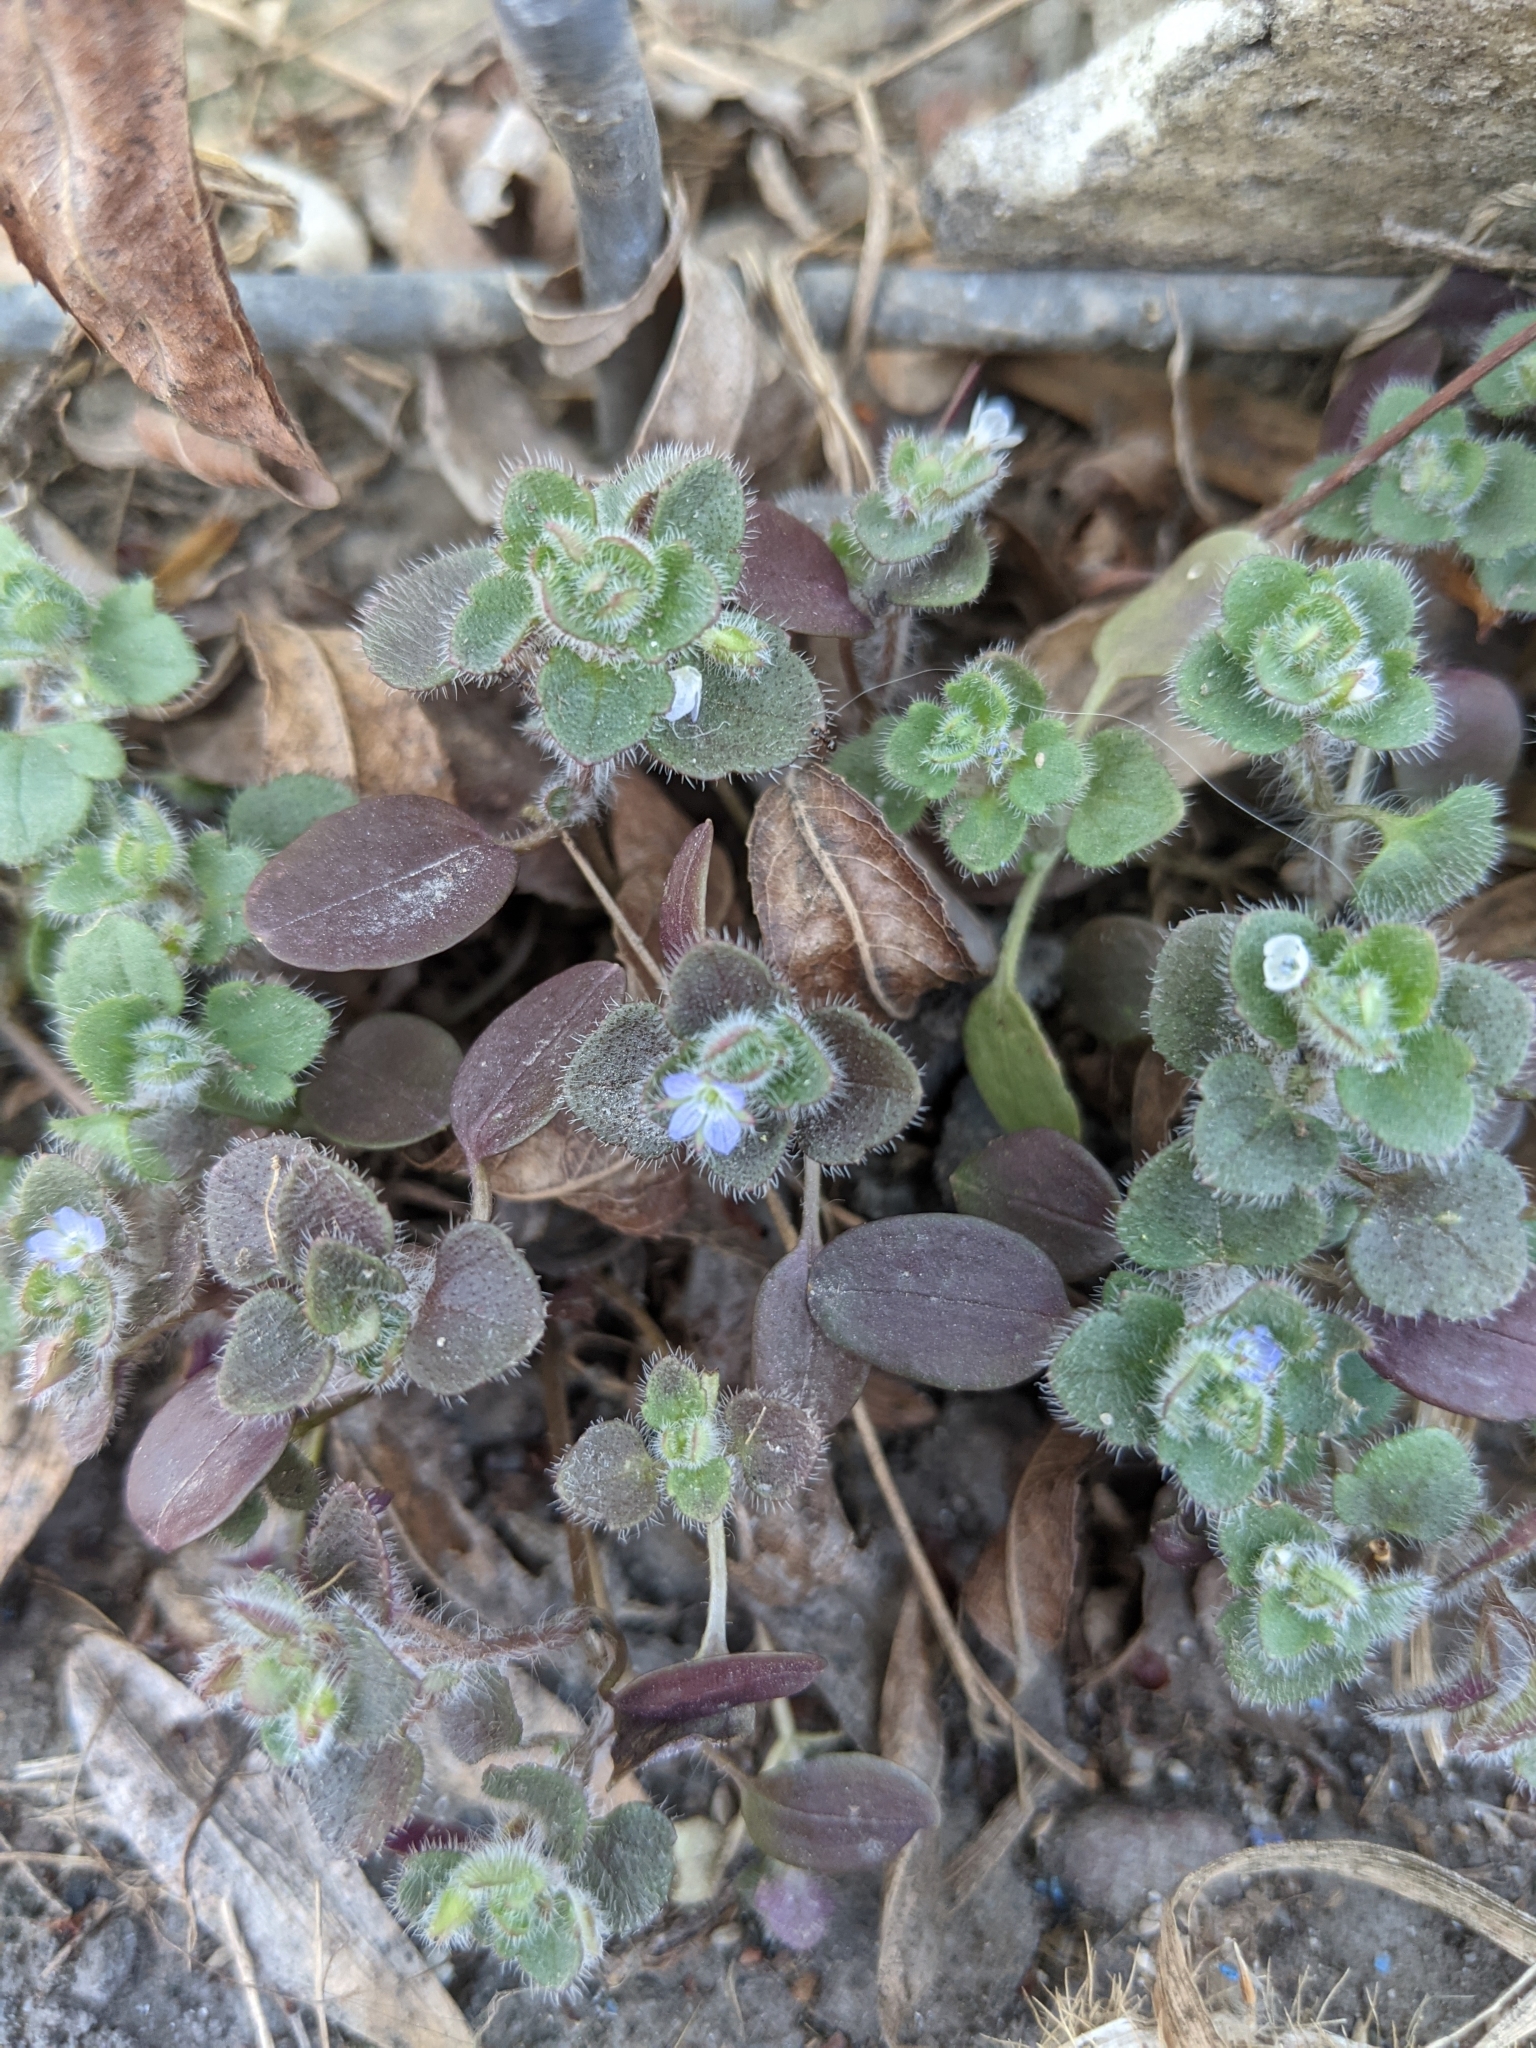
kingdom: Plantae
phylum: Tracheophyta
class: Magnoliopsida
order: Lamiales
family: Plantaginaceae
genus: Veronica
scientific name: Veronica hederifolia
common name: Ivy-leaved speedwell
